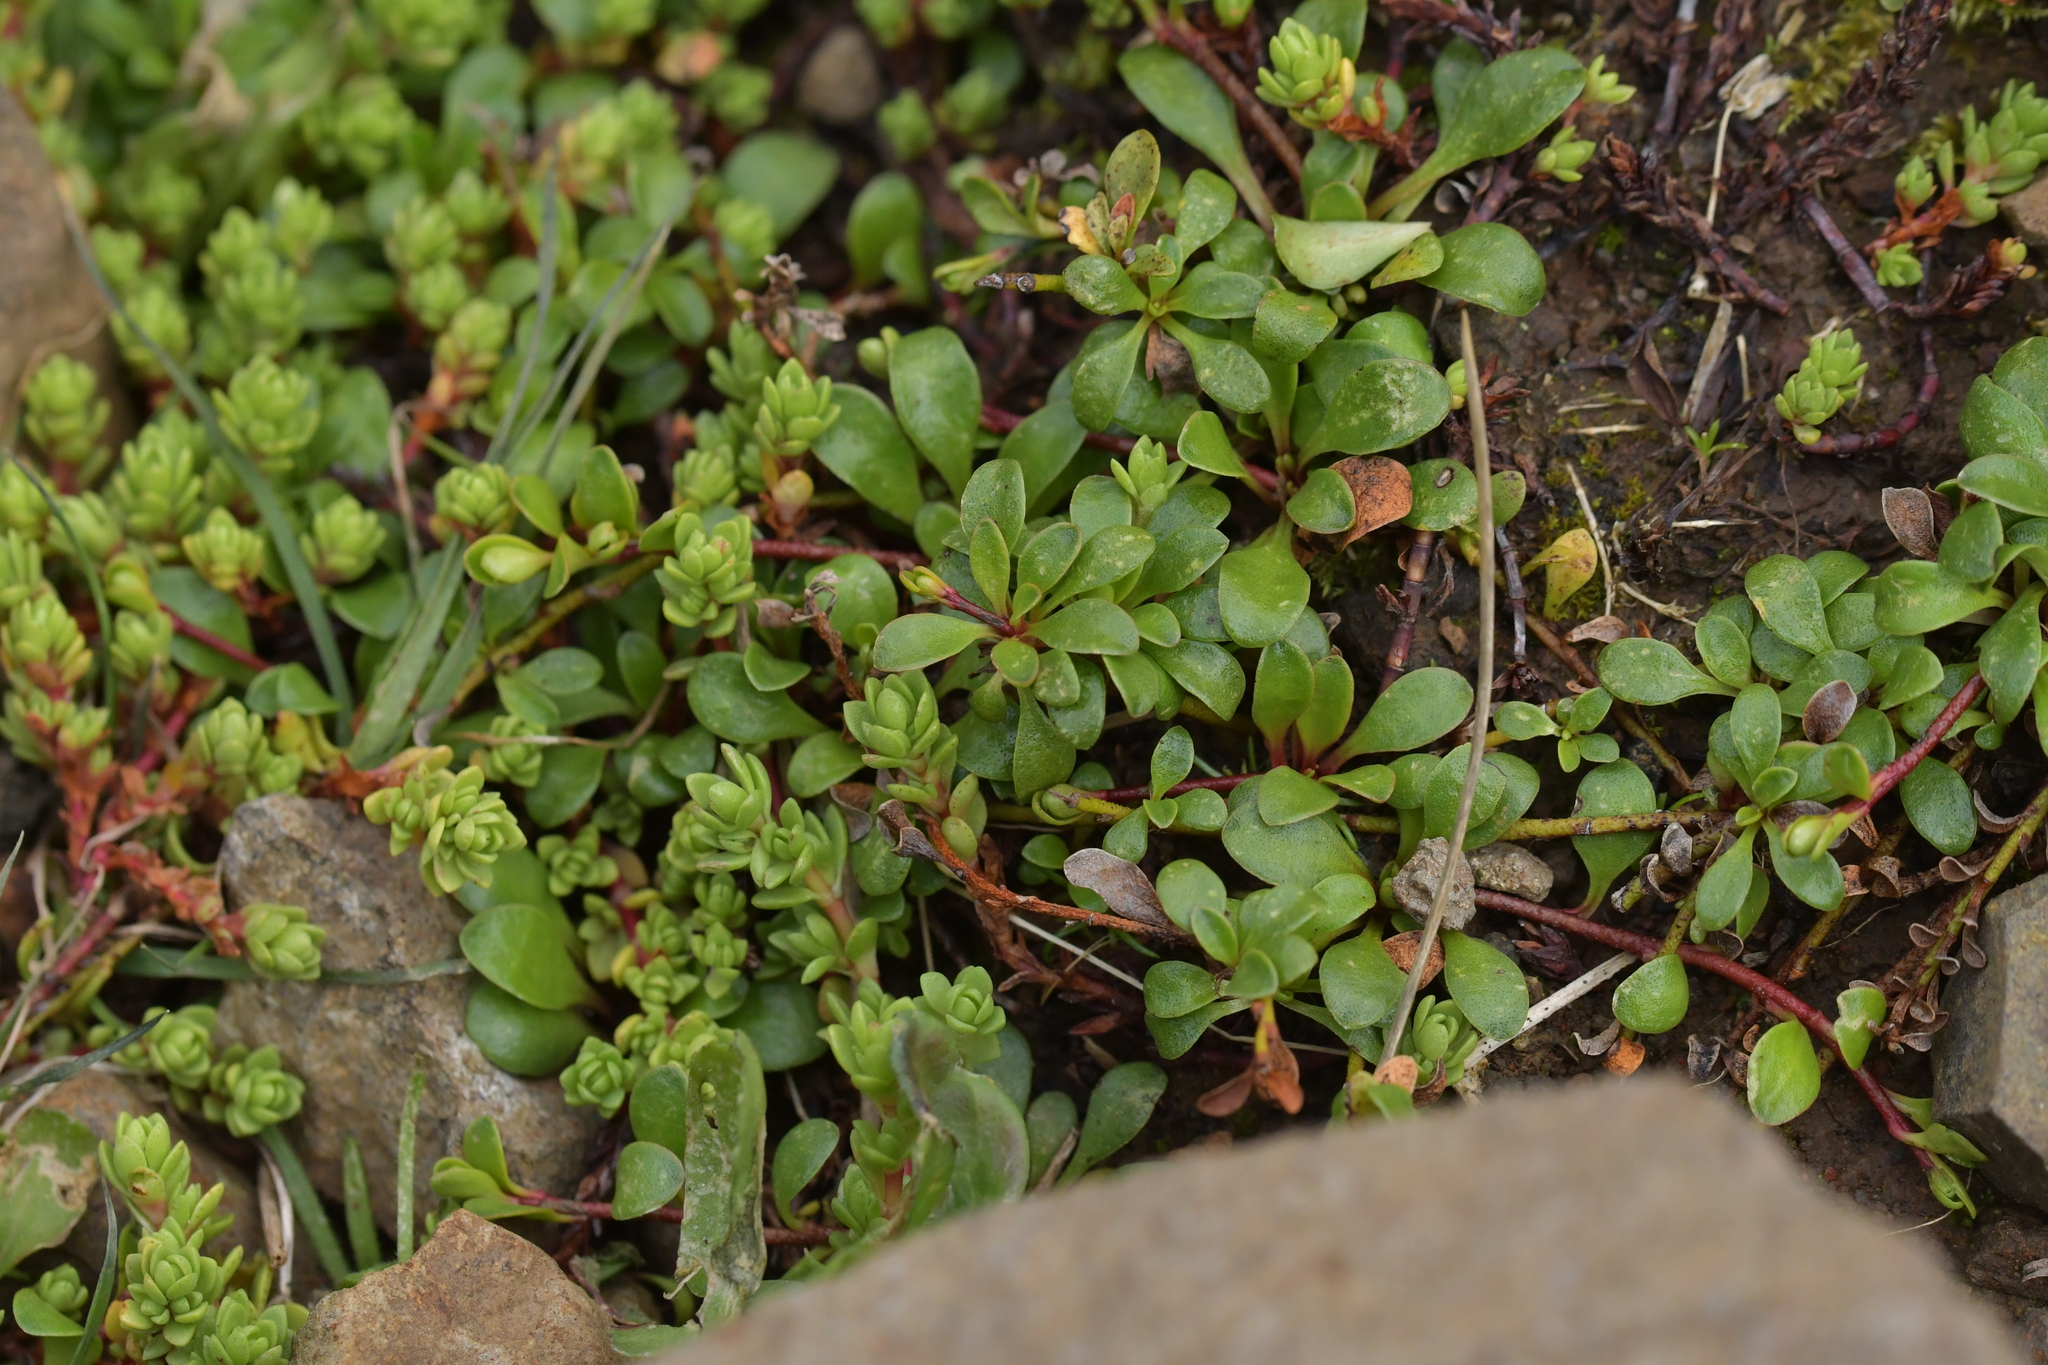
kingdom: Plantae
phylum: Tracheophyta
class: Magnoliopsida
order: Ericales
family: Primulaceae
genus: Samolus
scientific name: Samolus repens
